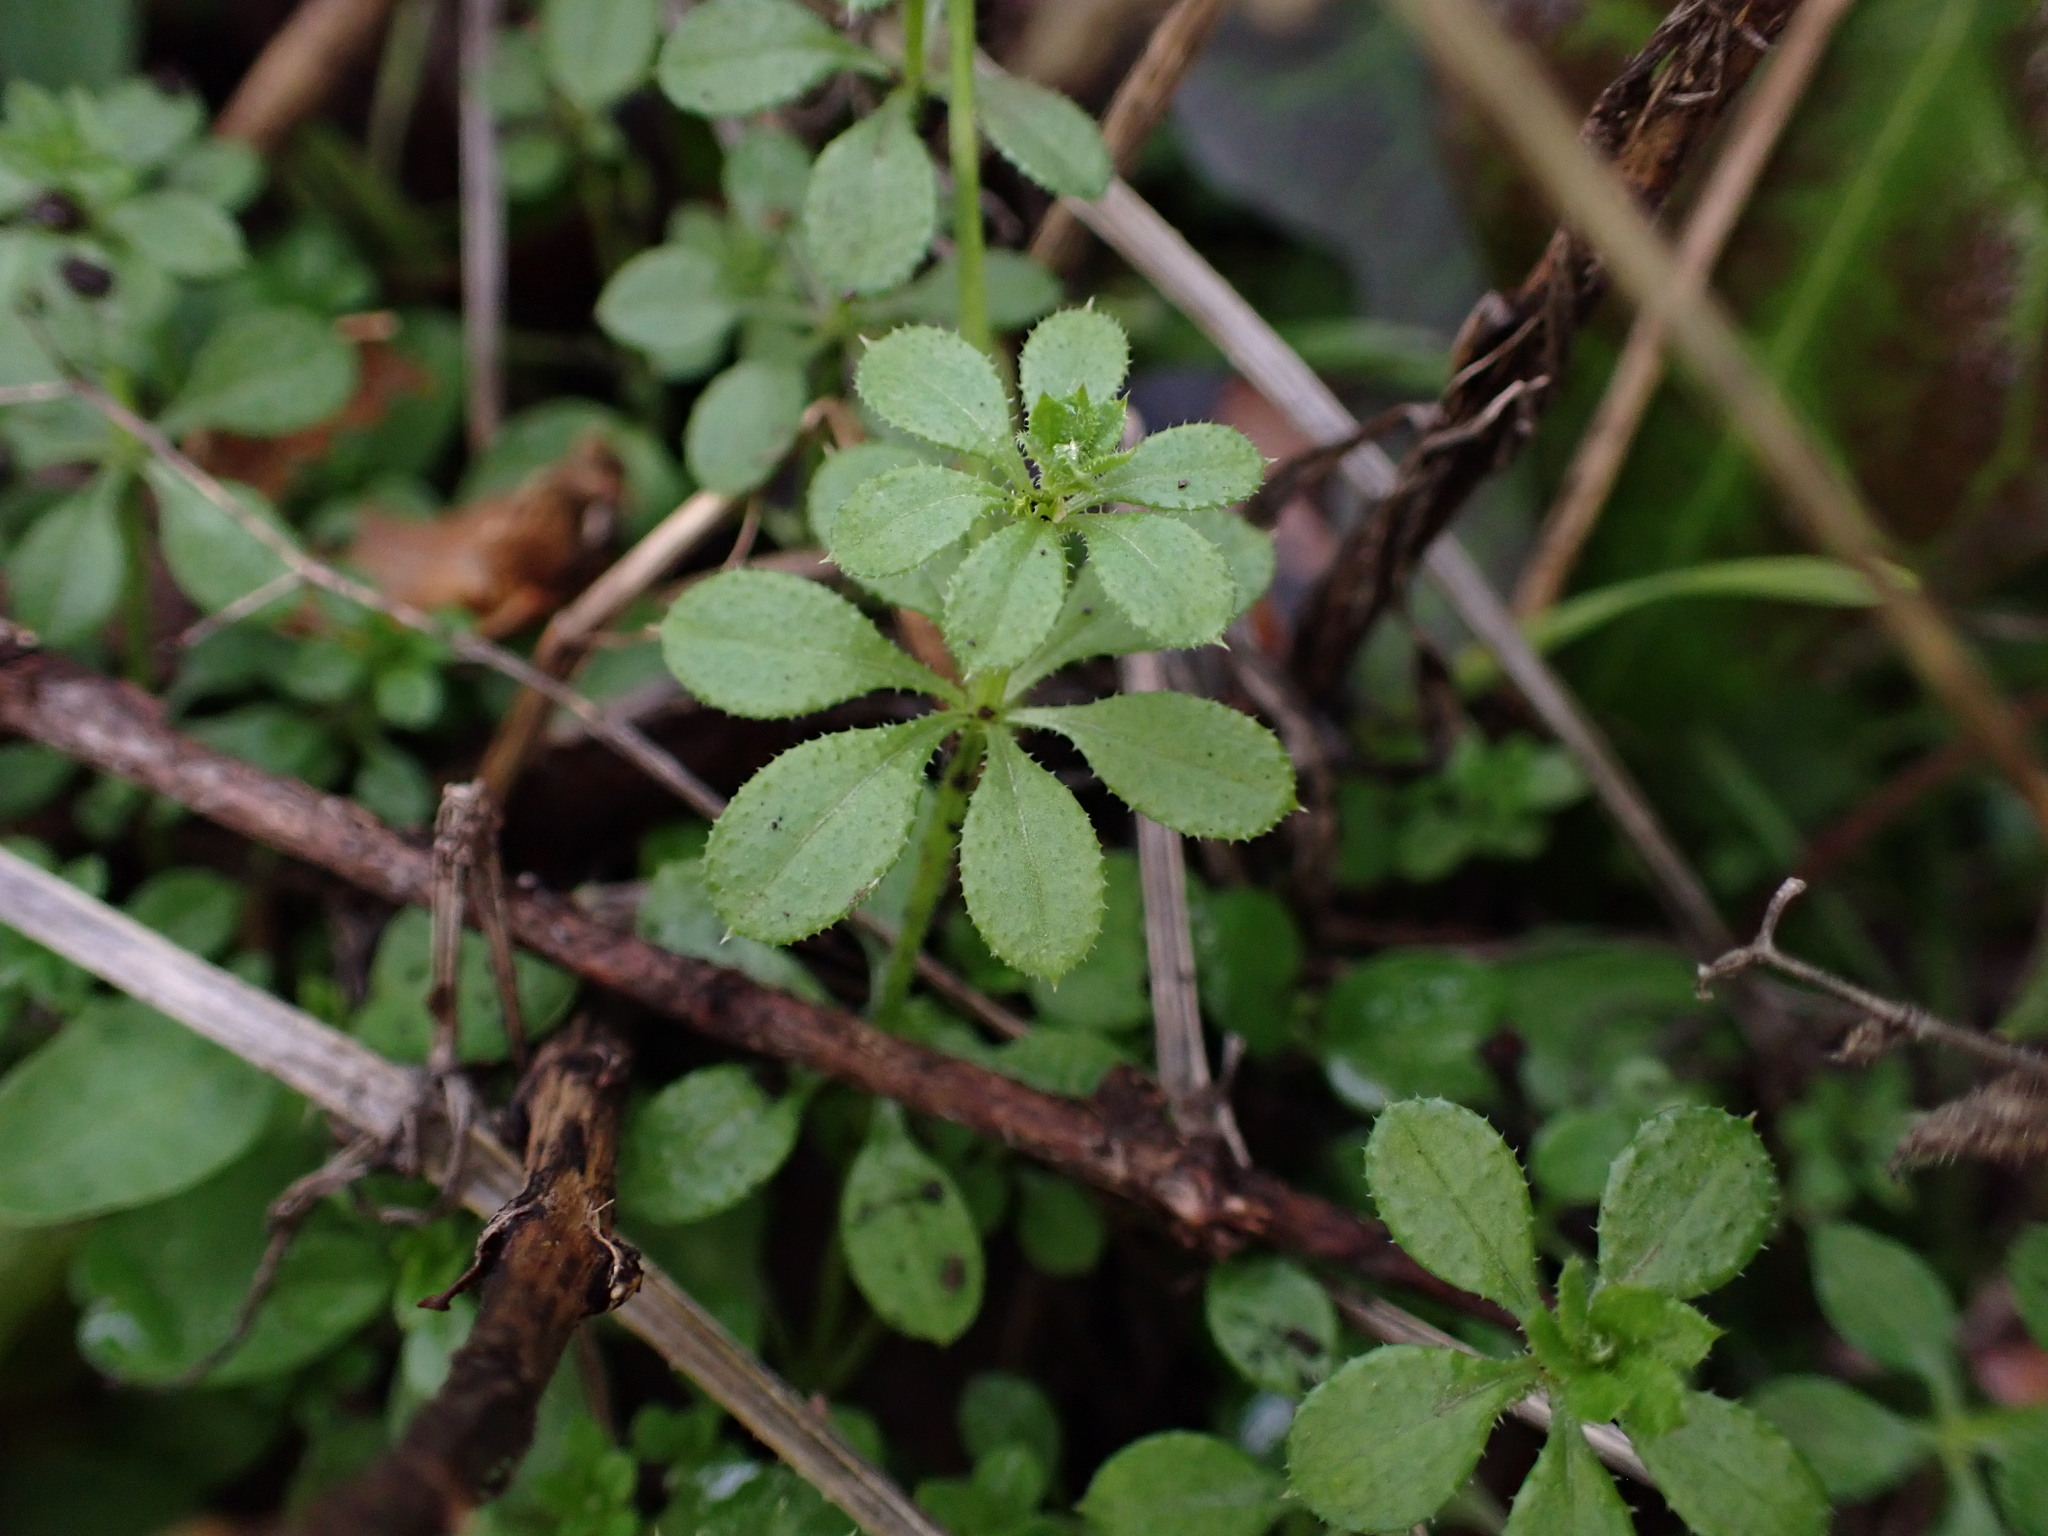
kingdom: Plantae
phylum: Tracheophyta
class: Magnoliopsida
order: Gentianales
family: Rubiaceae
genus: Galium
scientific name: Galium aparine
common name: Cleavers
